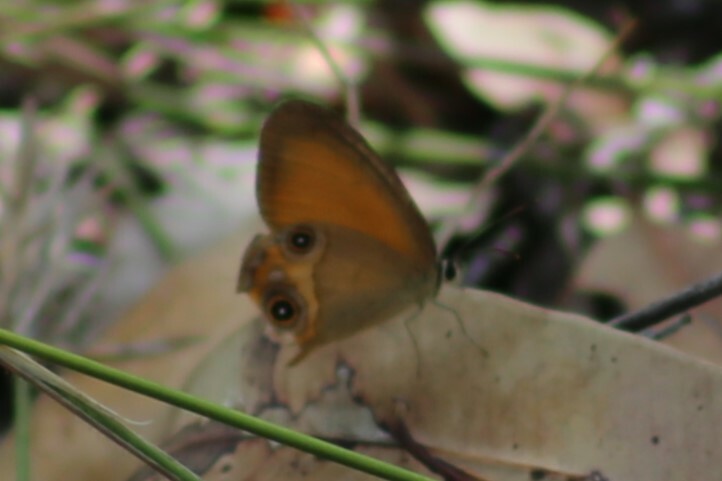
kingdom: Animalia
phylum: Arthropoda
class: Insecta
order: Lepidoptera
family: Nymphalidae
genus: Hypocysta
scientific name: Hypocysta adiante
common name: Orange ringlet
